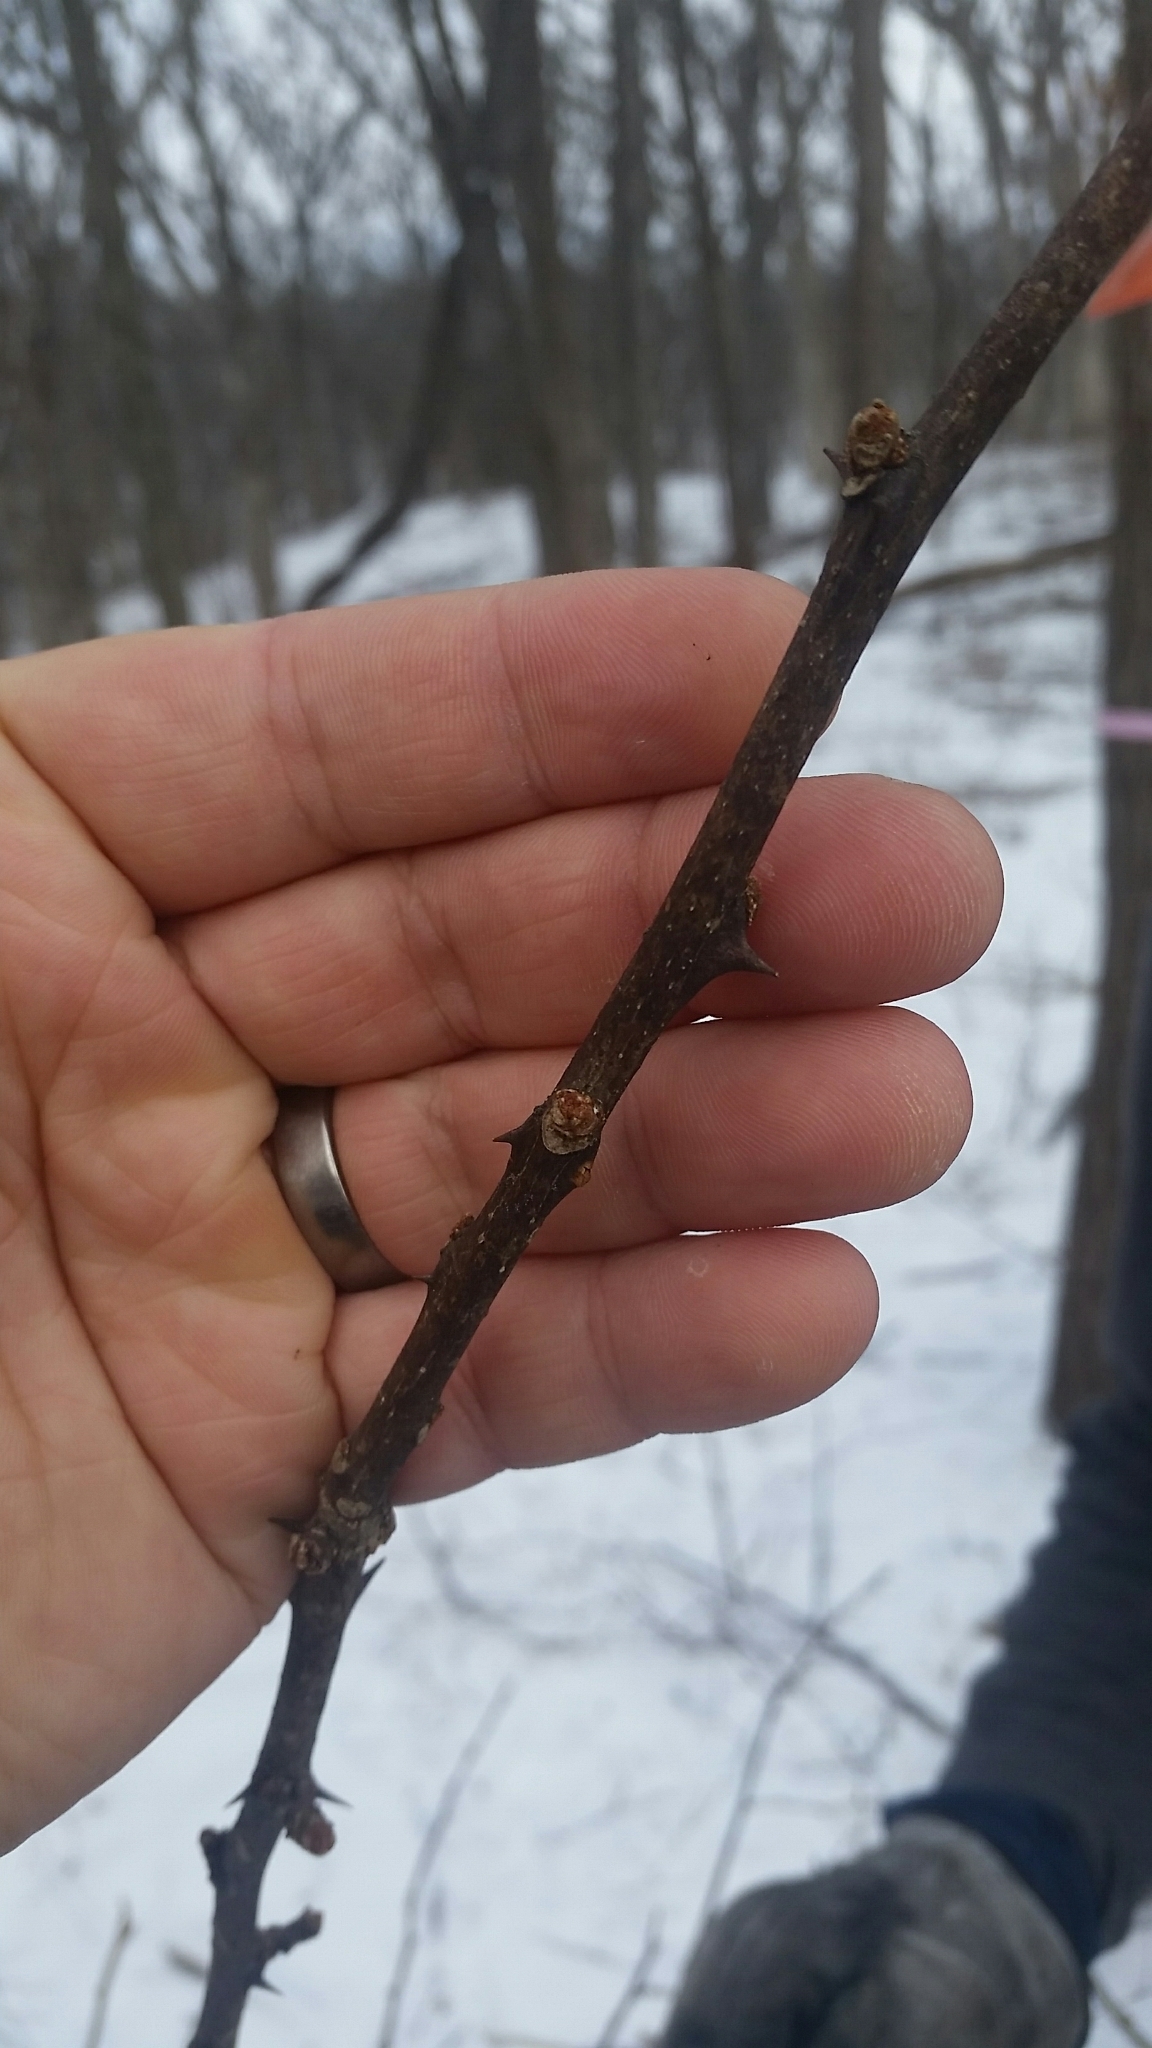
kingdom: Plantae
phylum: Tracheophyta
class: Magnoliopsida
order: Sapindales
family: Rutaceae
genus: Zanthoxylum
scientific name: Zanthoxylum americanum
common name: Northern prickly-ash
